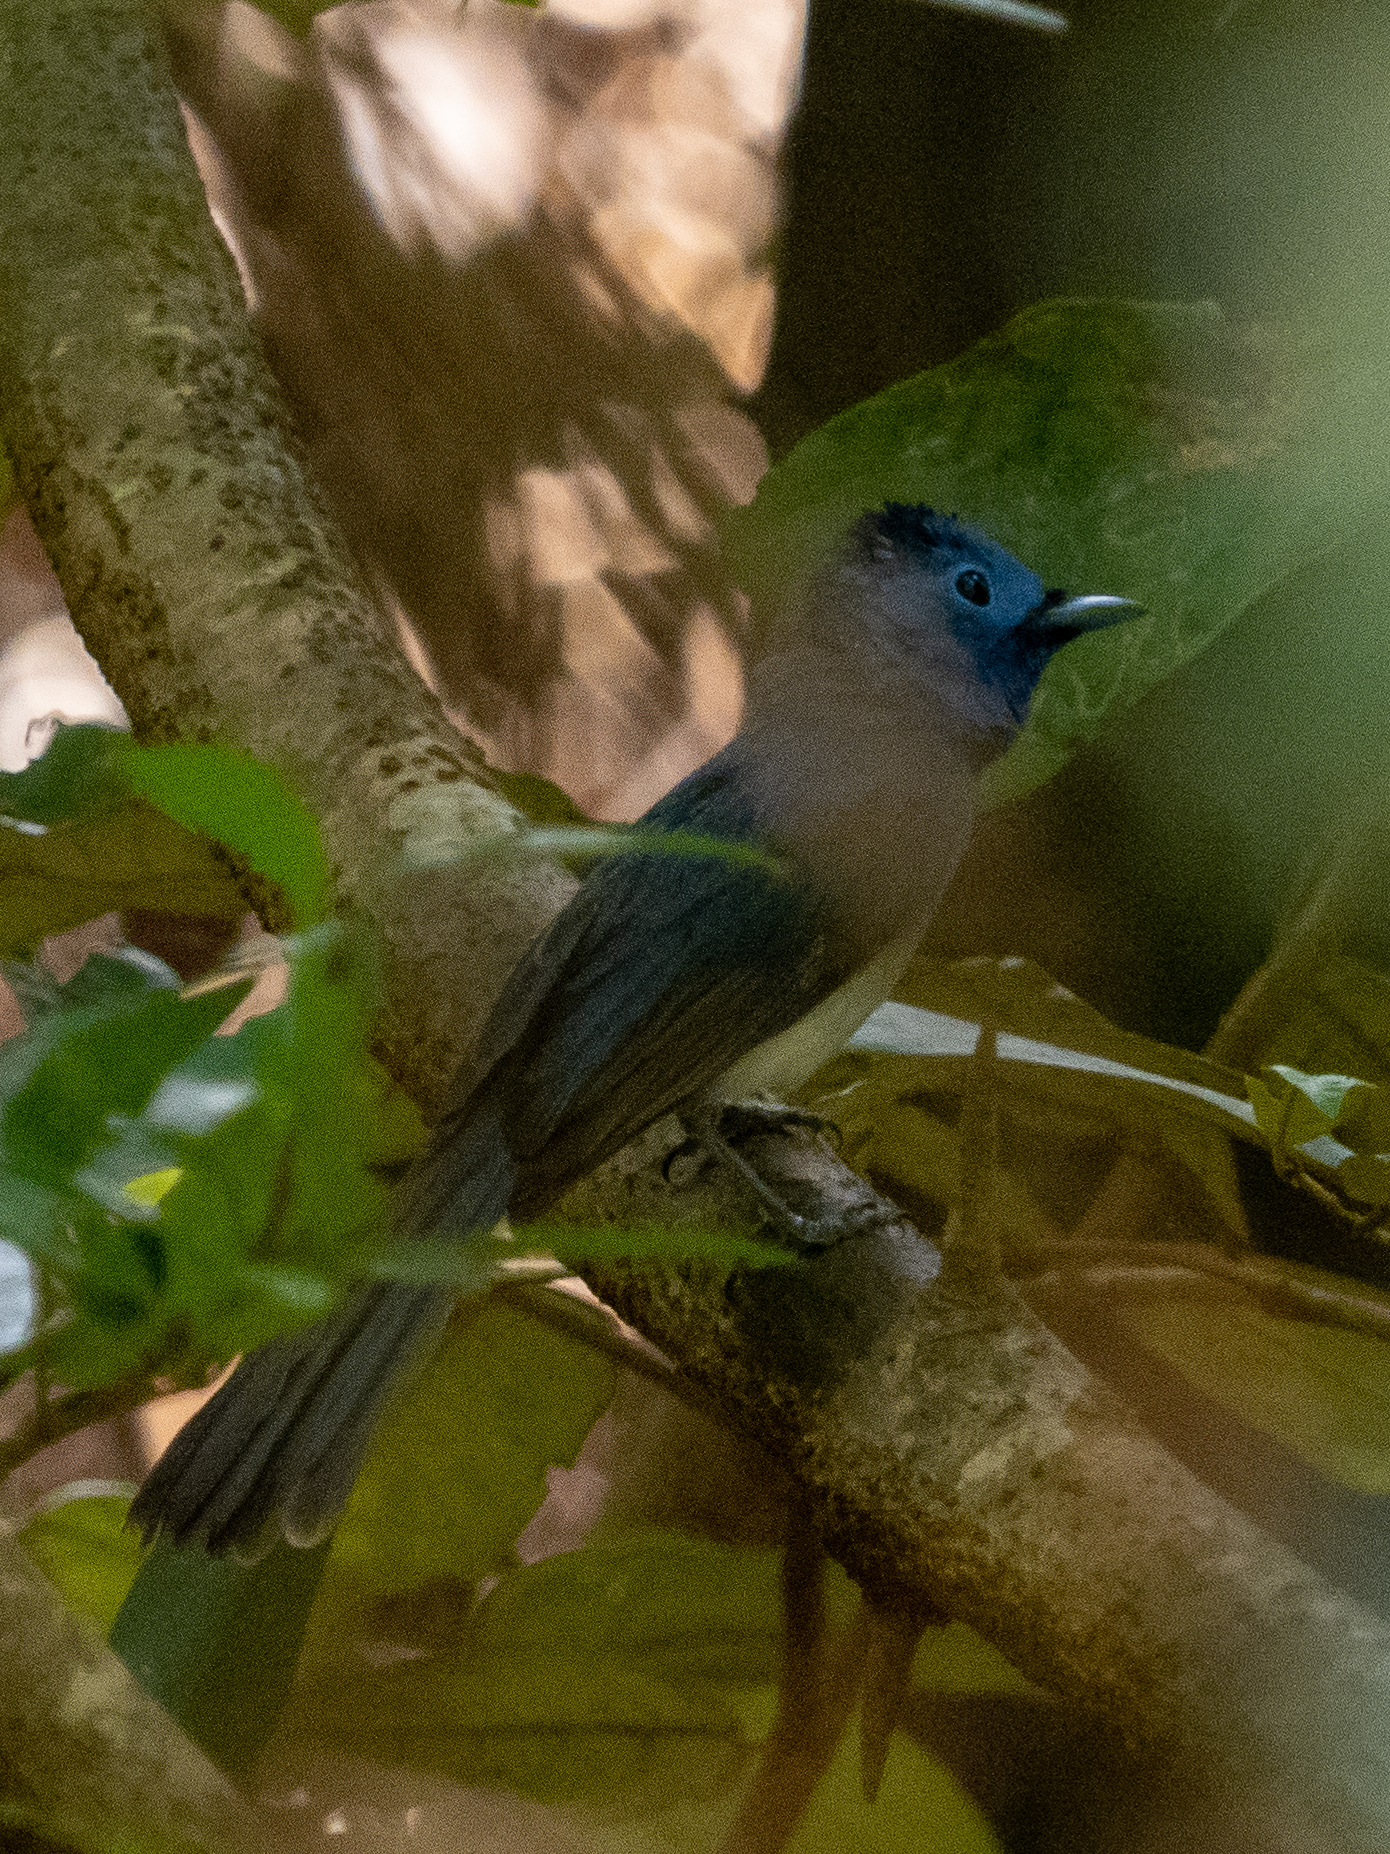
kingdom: Animalia
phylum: Chordata
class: Aves
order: Passeriformes
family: Monarchidae
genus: Hypothymis
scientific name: Hypothymis azurea
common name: Black-naped monarch
